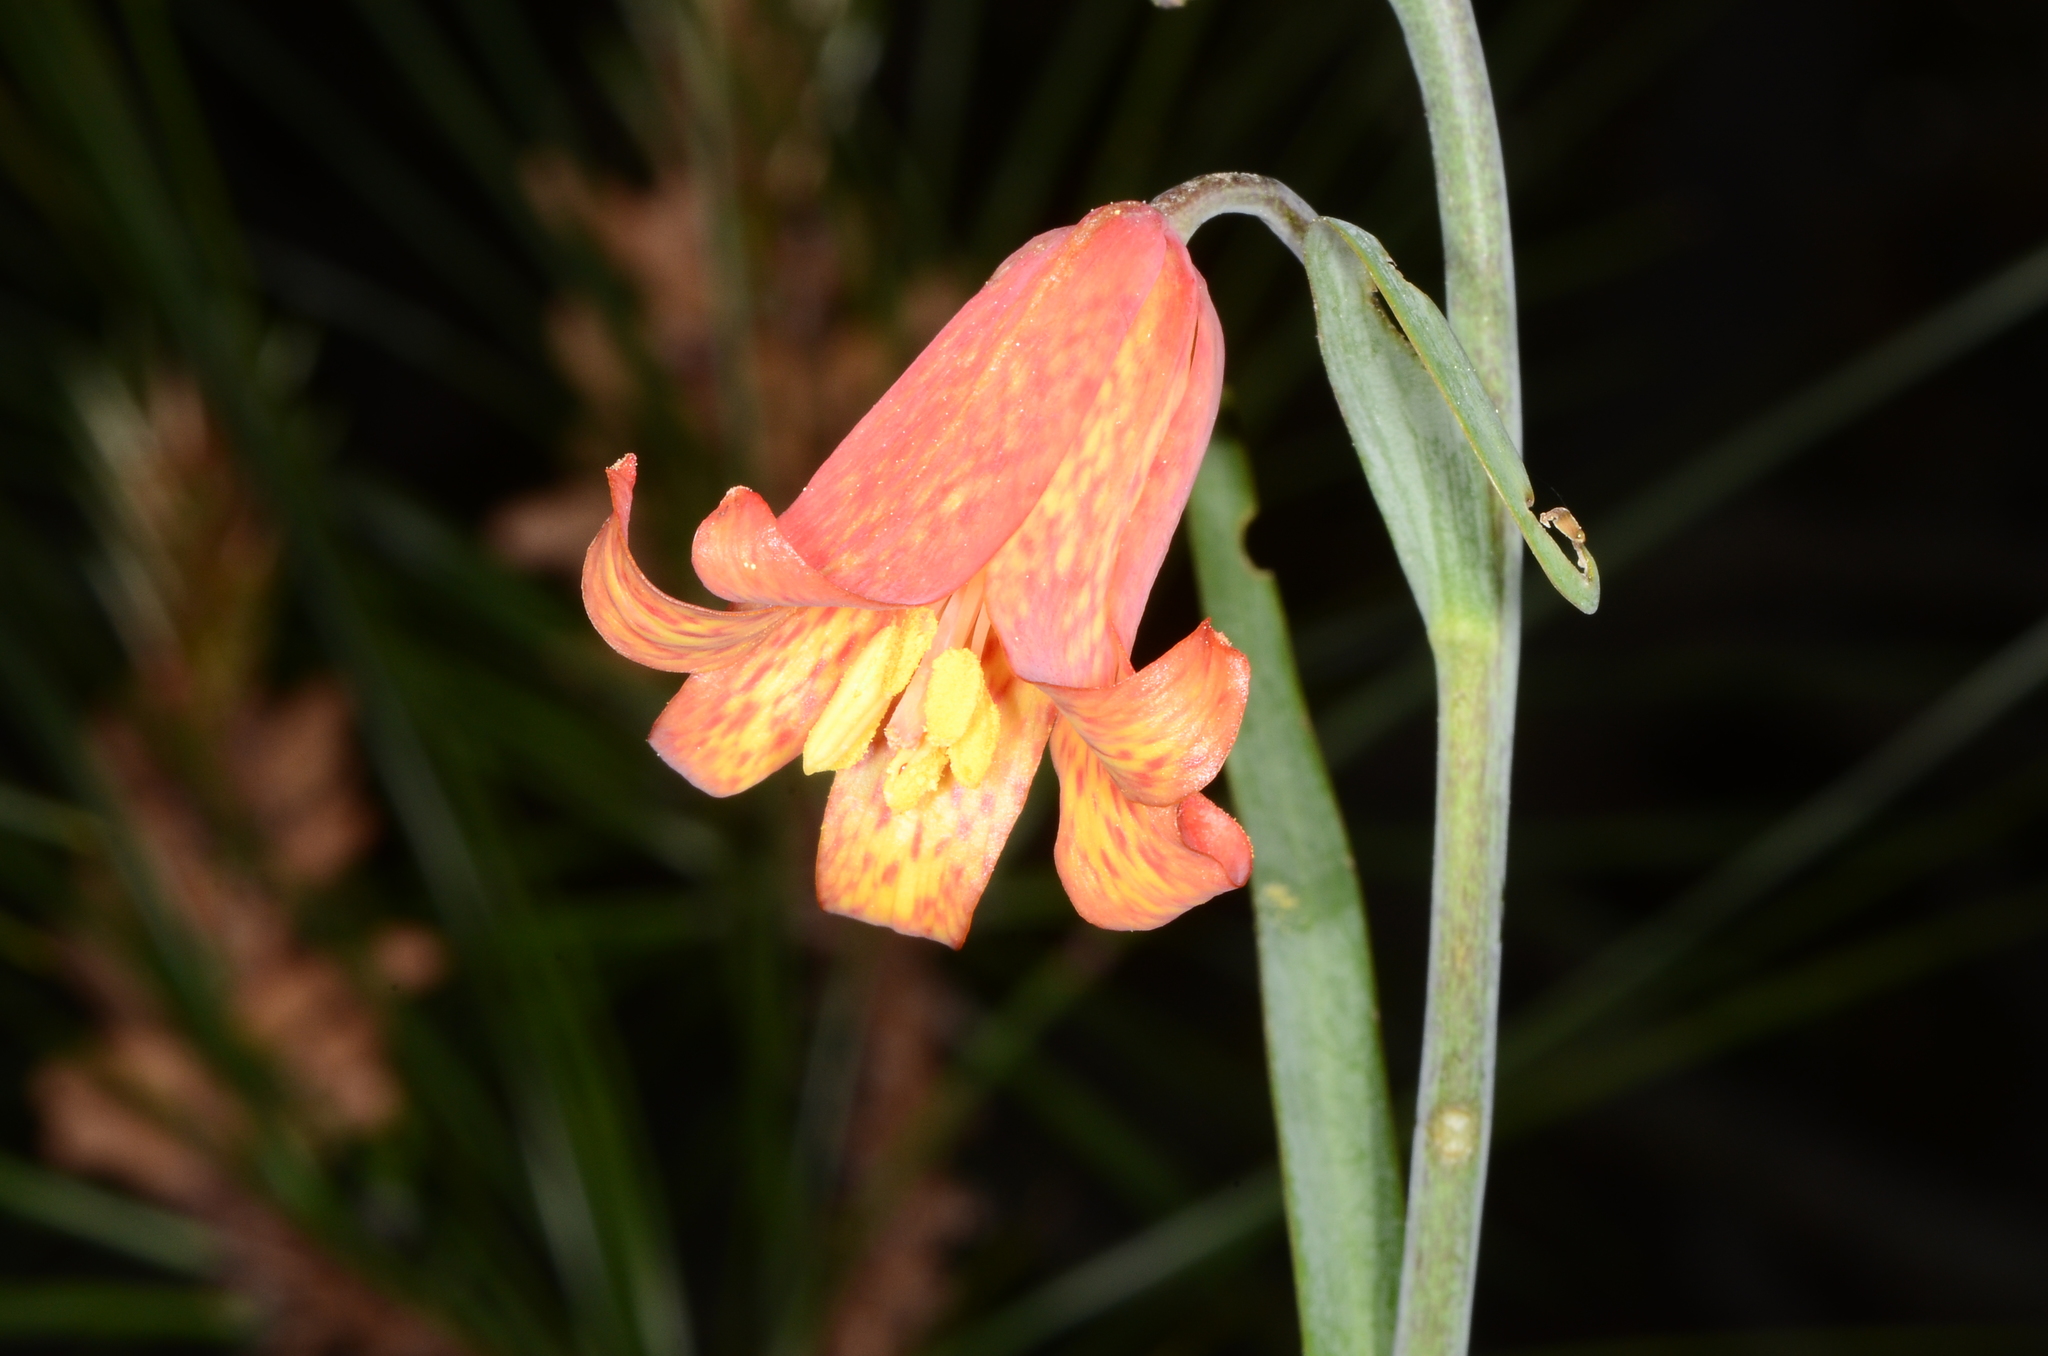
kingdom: Plantae
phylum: Tracheophyta
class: Liliopsida
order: Liliales
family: Liliaceae
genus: Fritillaria
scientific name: Fritillaria recurva
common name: Scarlet fritillary
